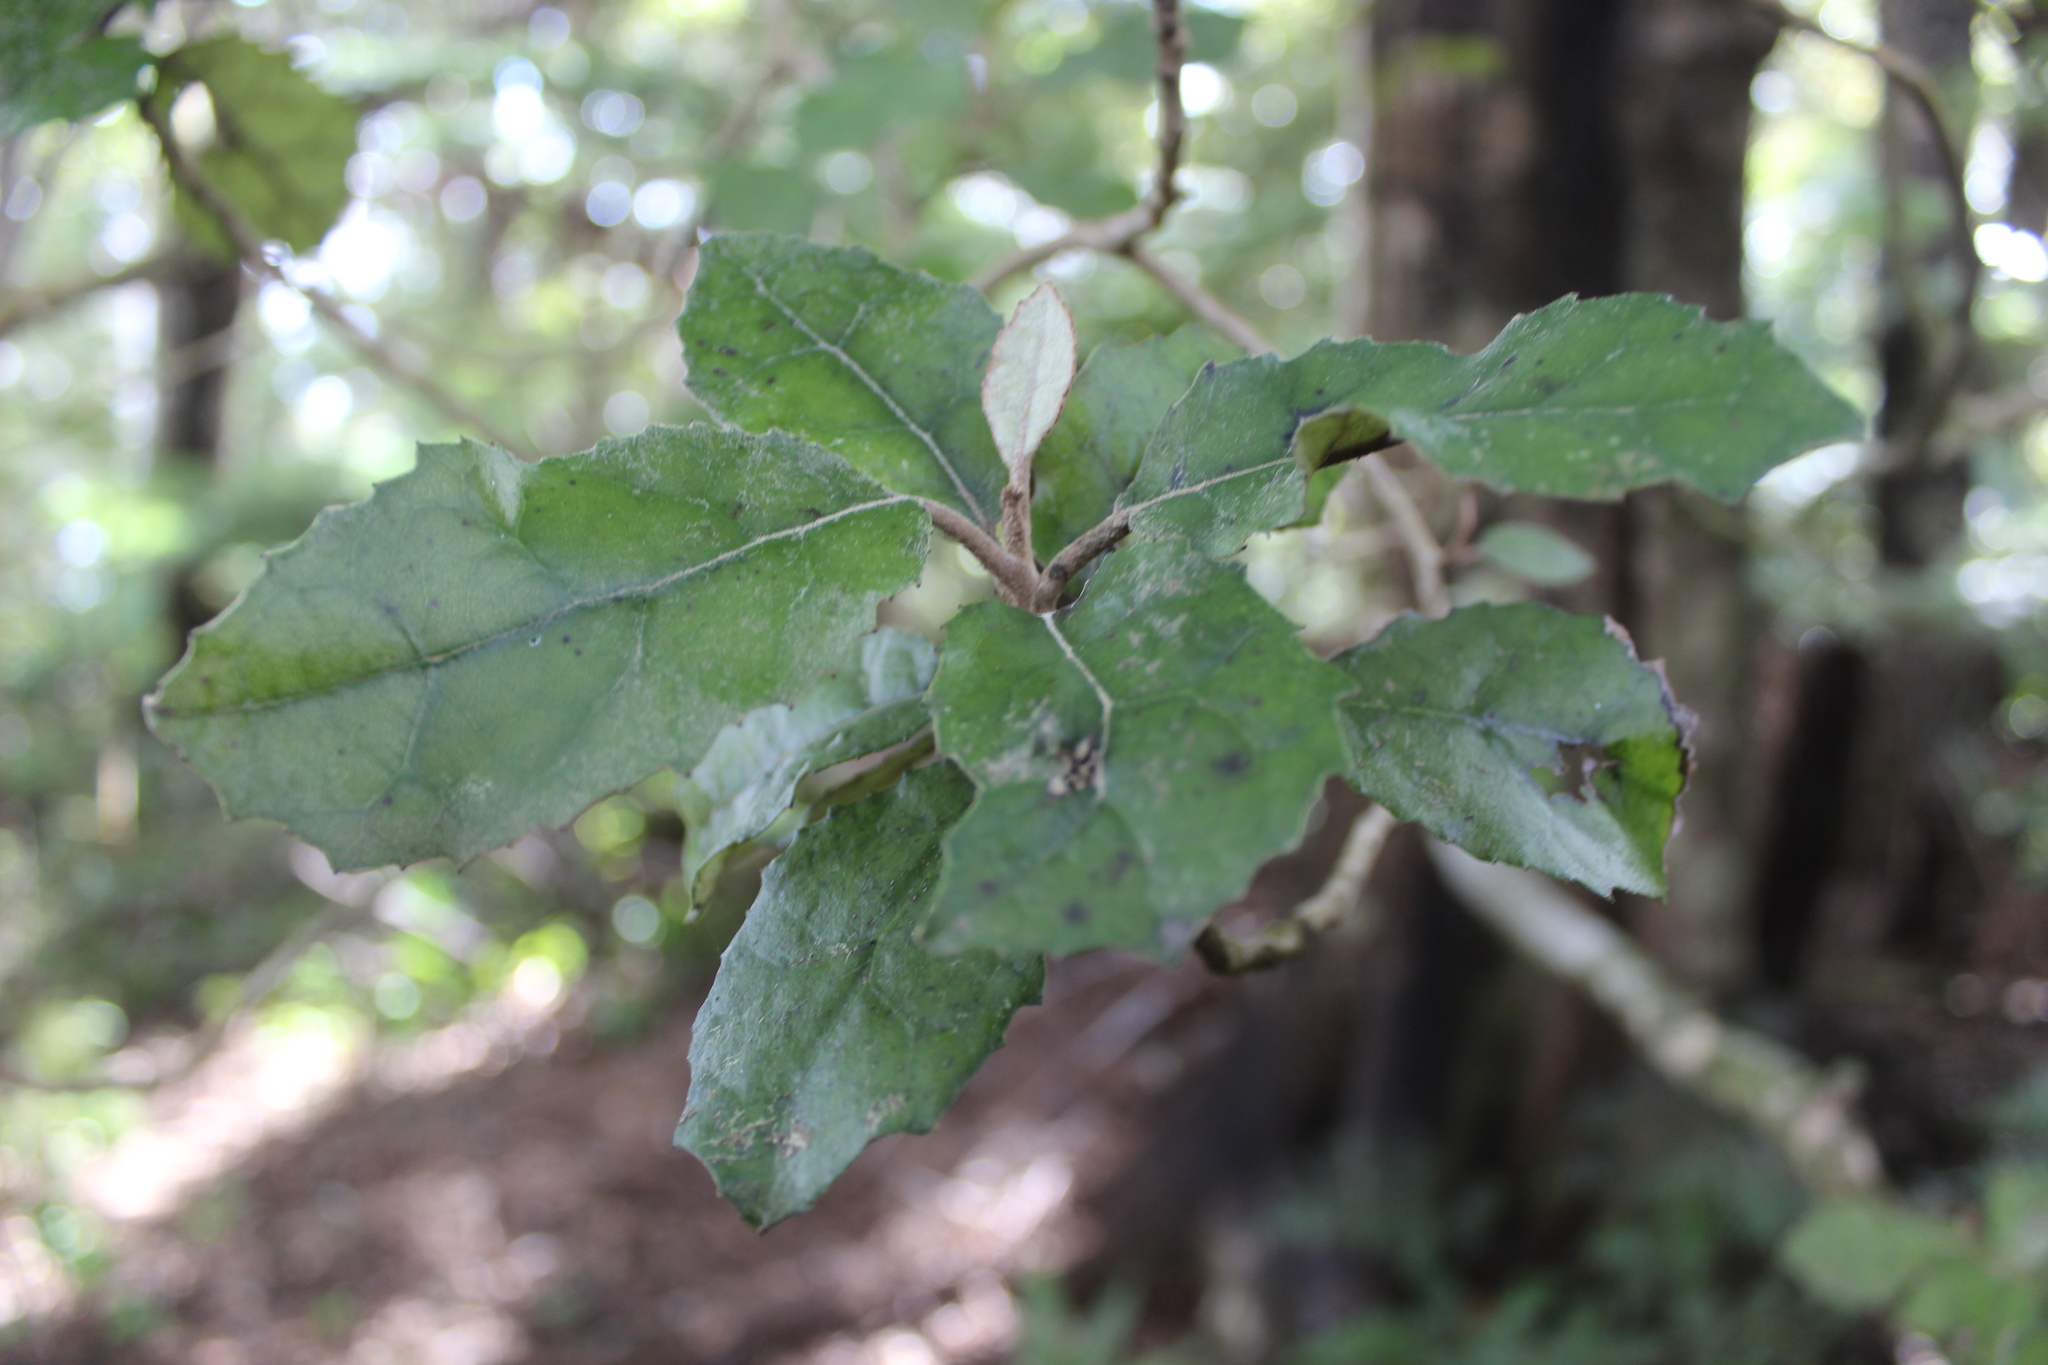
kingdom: Plantae
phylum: Tracheophyta
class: Magnoliopsida
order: Asterales
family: Asteraceae
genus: Olearia
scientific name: Olearia rani
